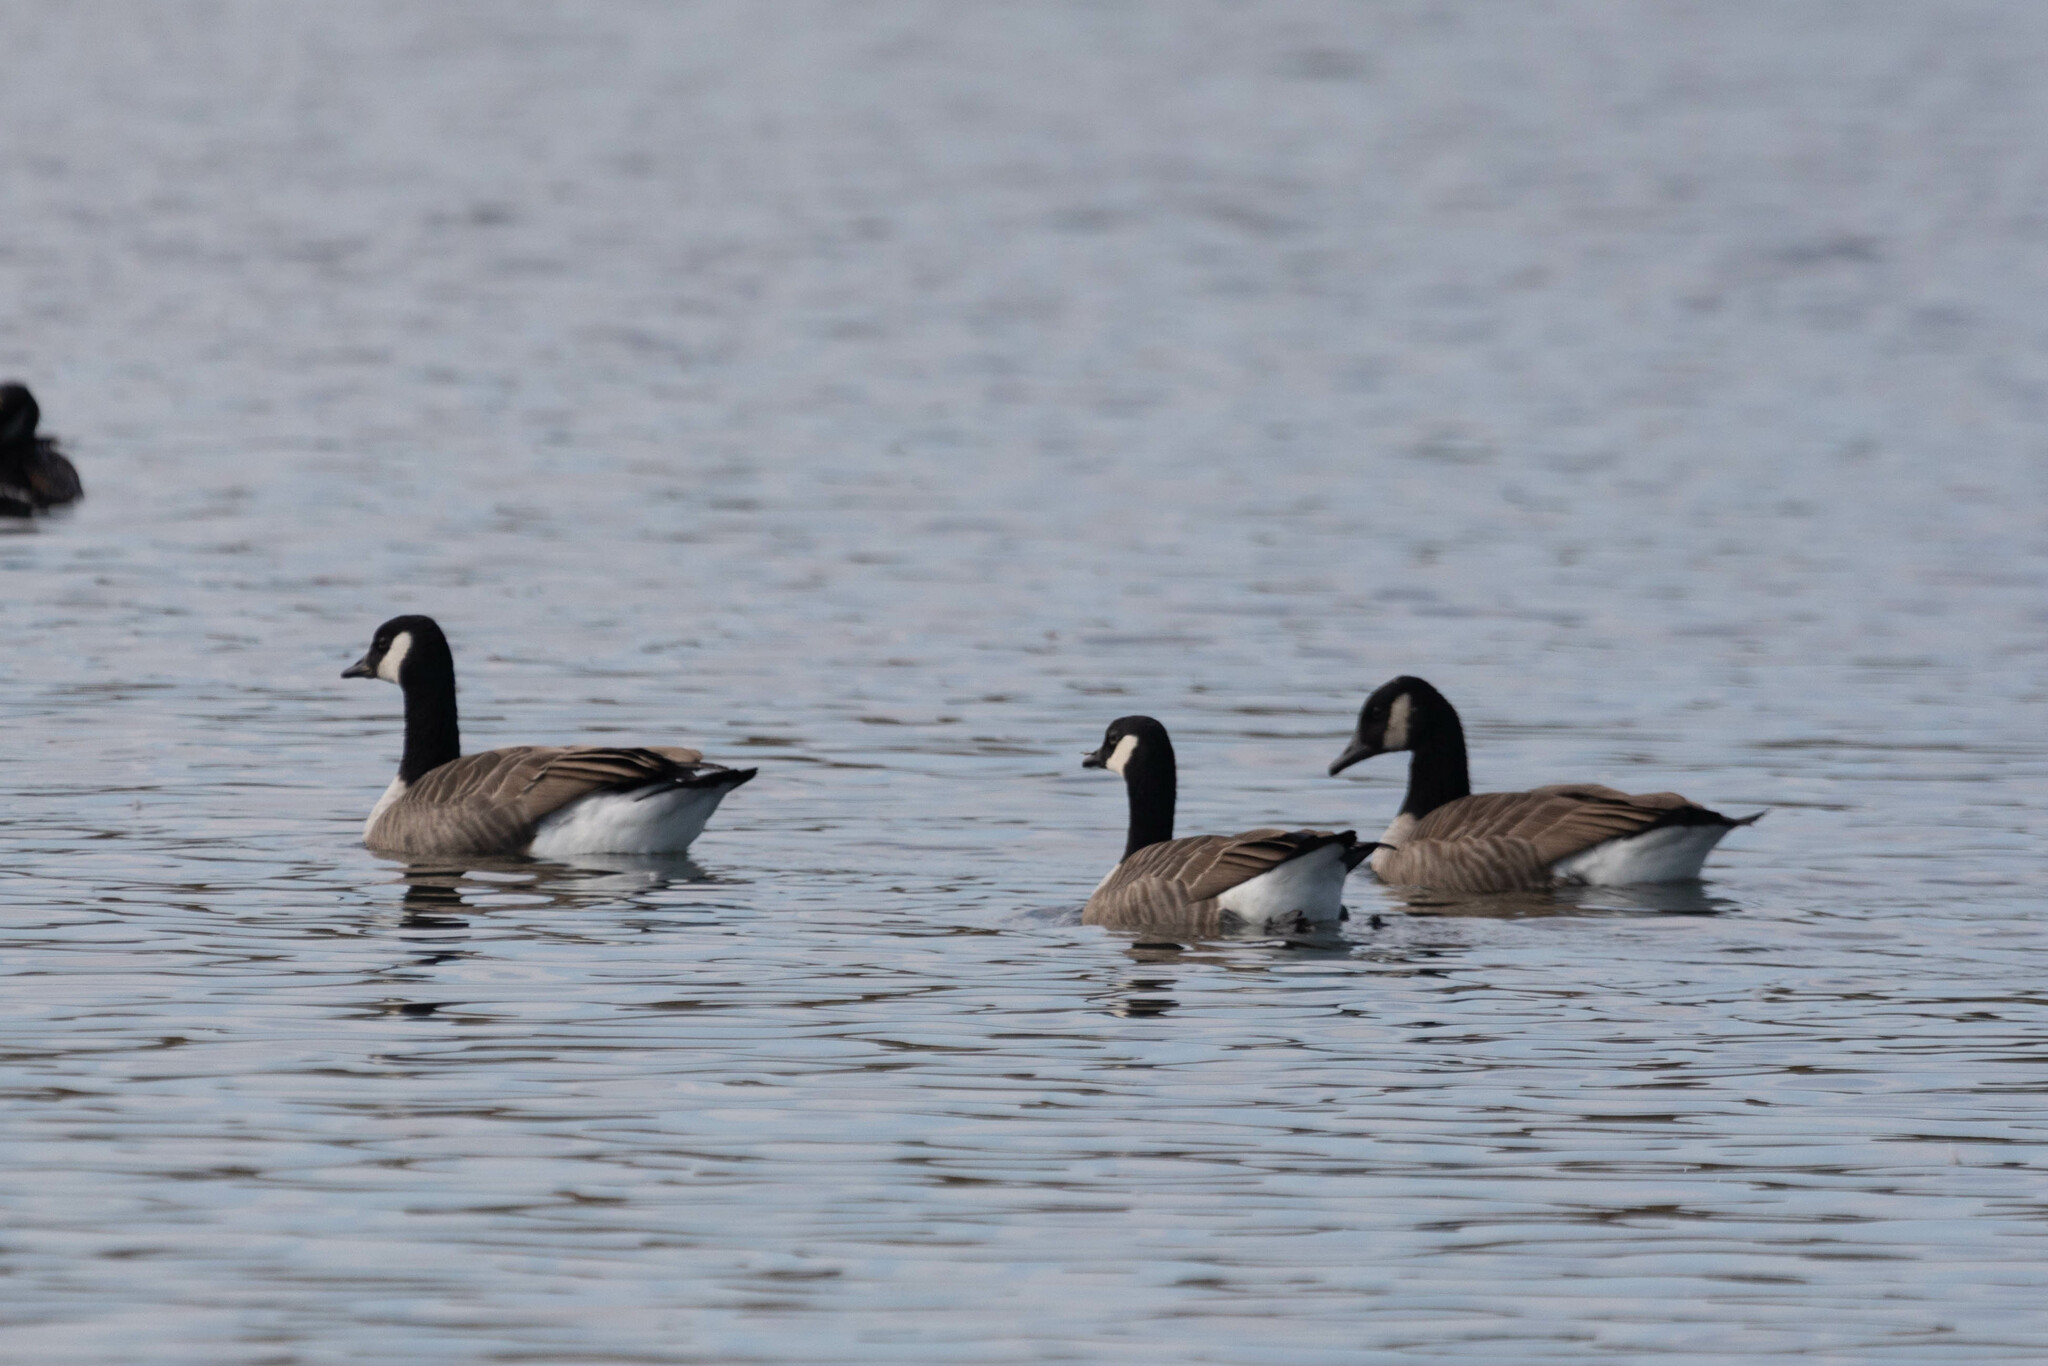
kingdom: Animalia
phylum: Chordata
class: Aves
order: Anseriformes
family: Anatidae
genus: Branta
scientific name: Branta canadensis
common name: Canada goose
